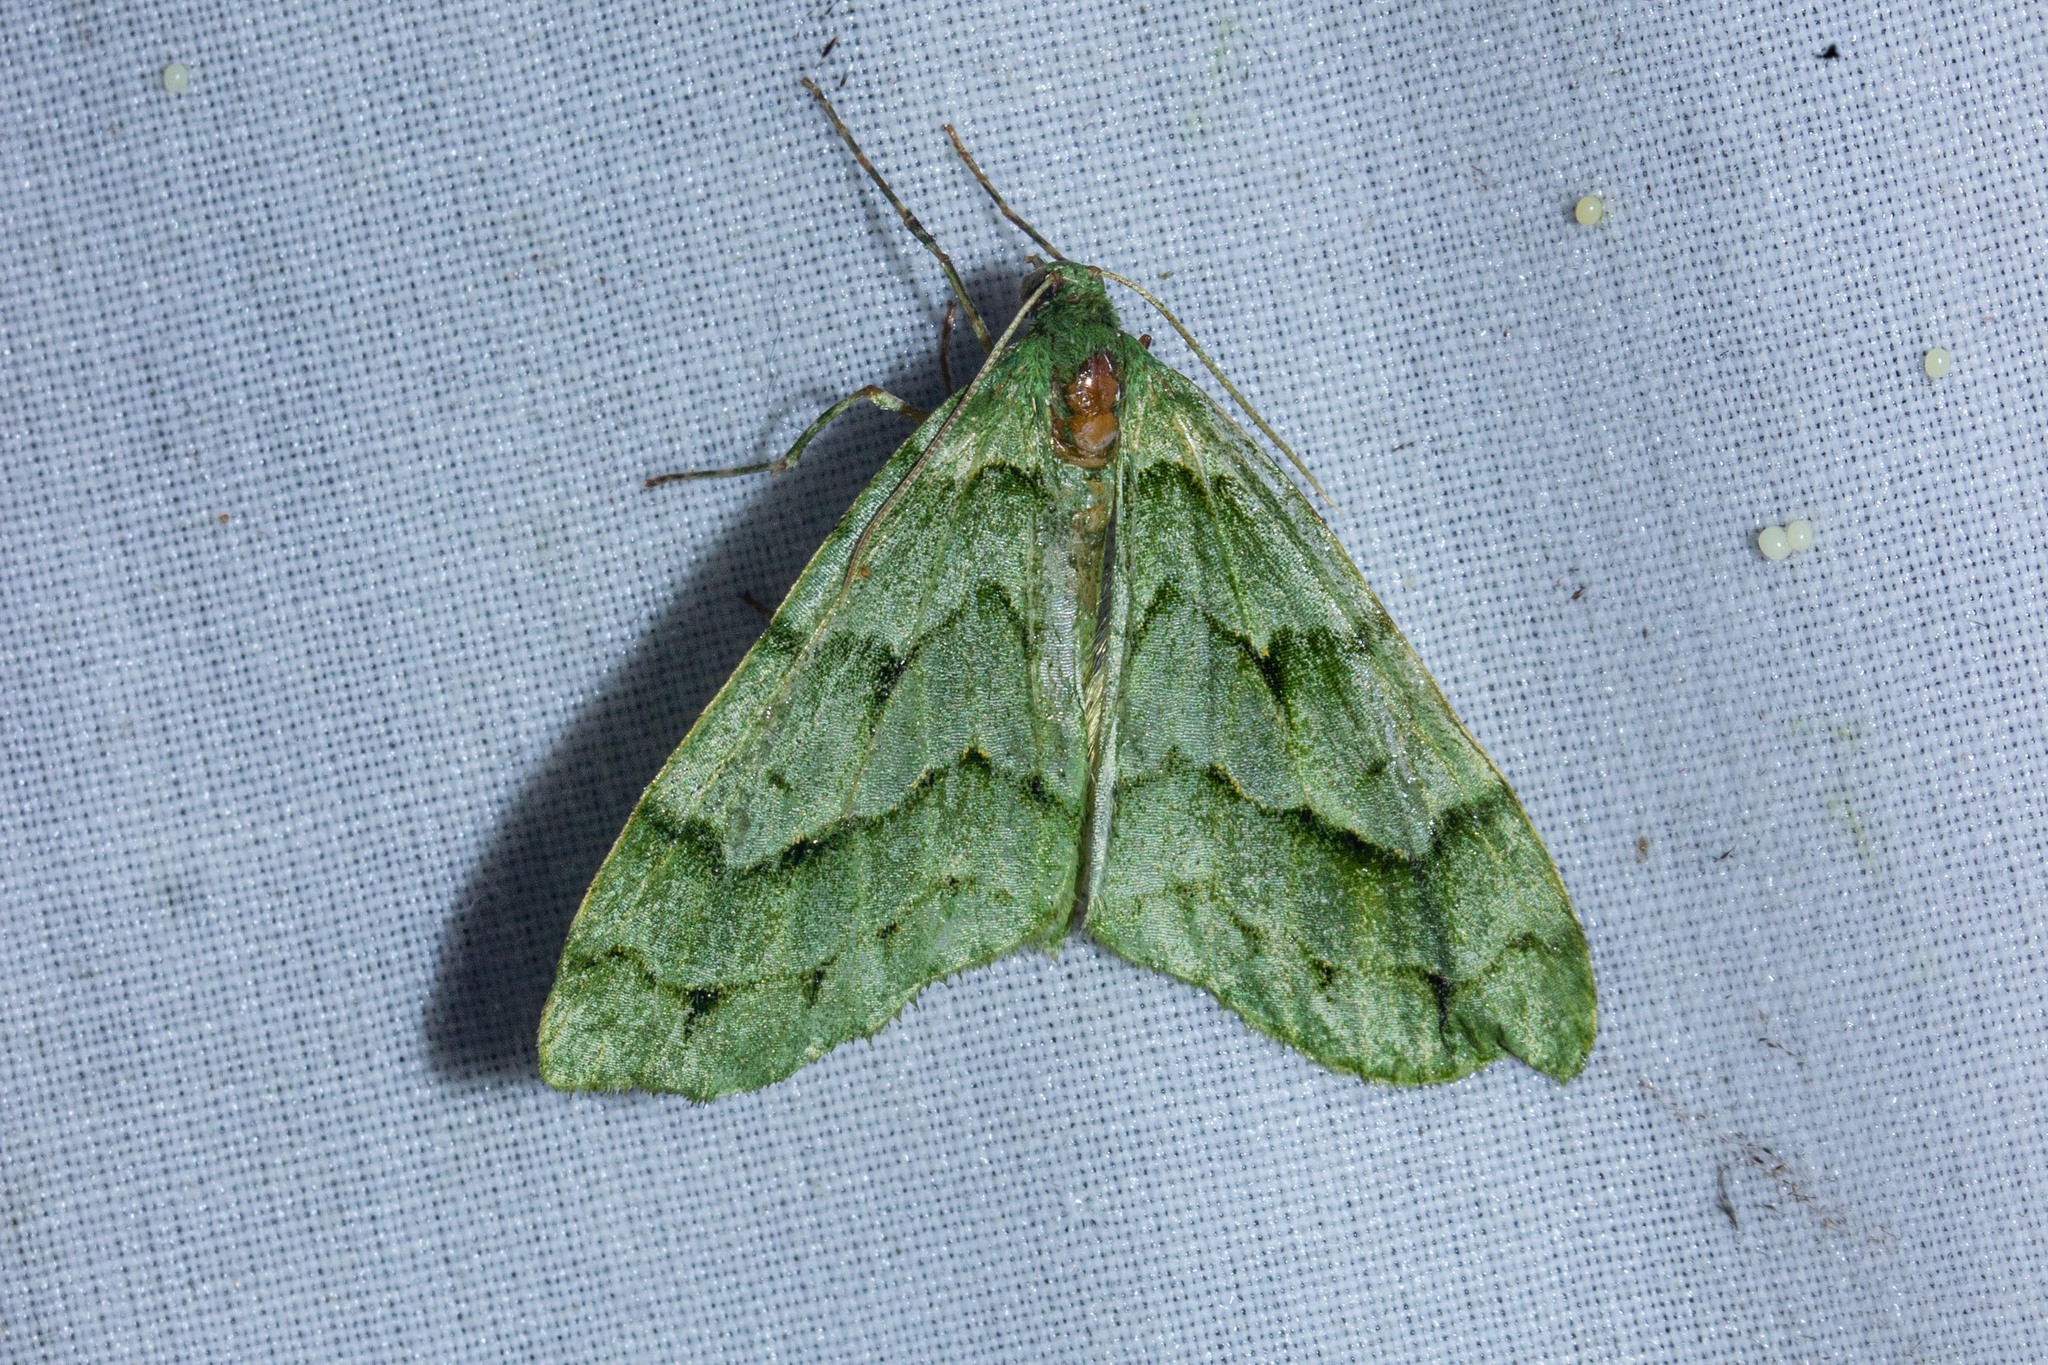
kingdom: Animalia
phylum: Arthropoda
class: Insecta
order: Lepidoptera
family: Geometridae
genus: Tatosoma
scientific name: Tatosoma lestevata
